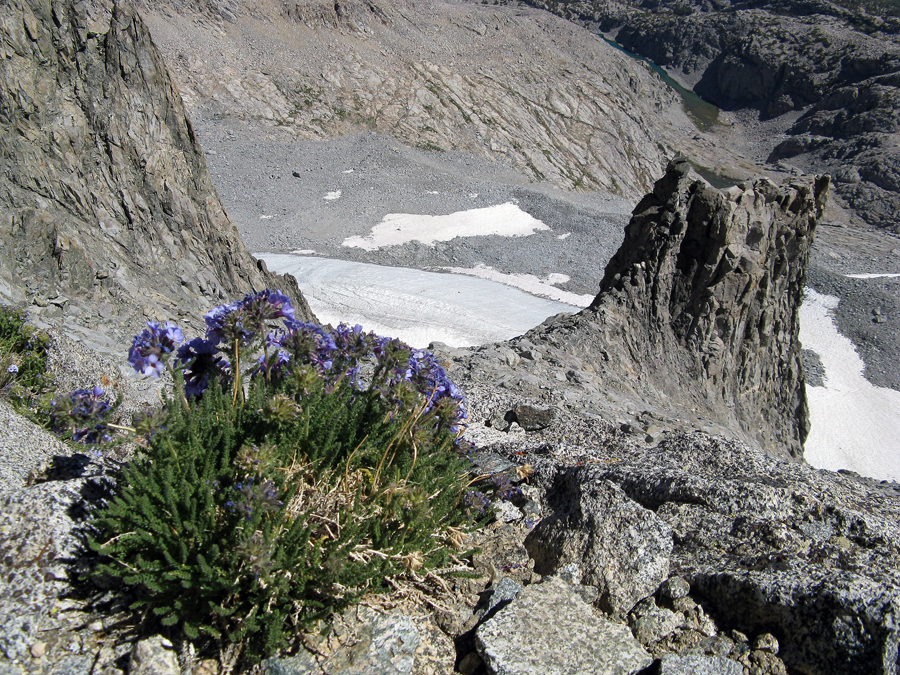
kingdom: Plantae
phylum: Tracheophyta
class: Magnoliopsida
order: Ericales
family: Polemoniaceae
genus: Polemonium
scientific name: Polemonium eximium
